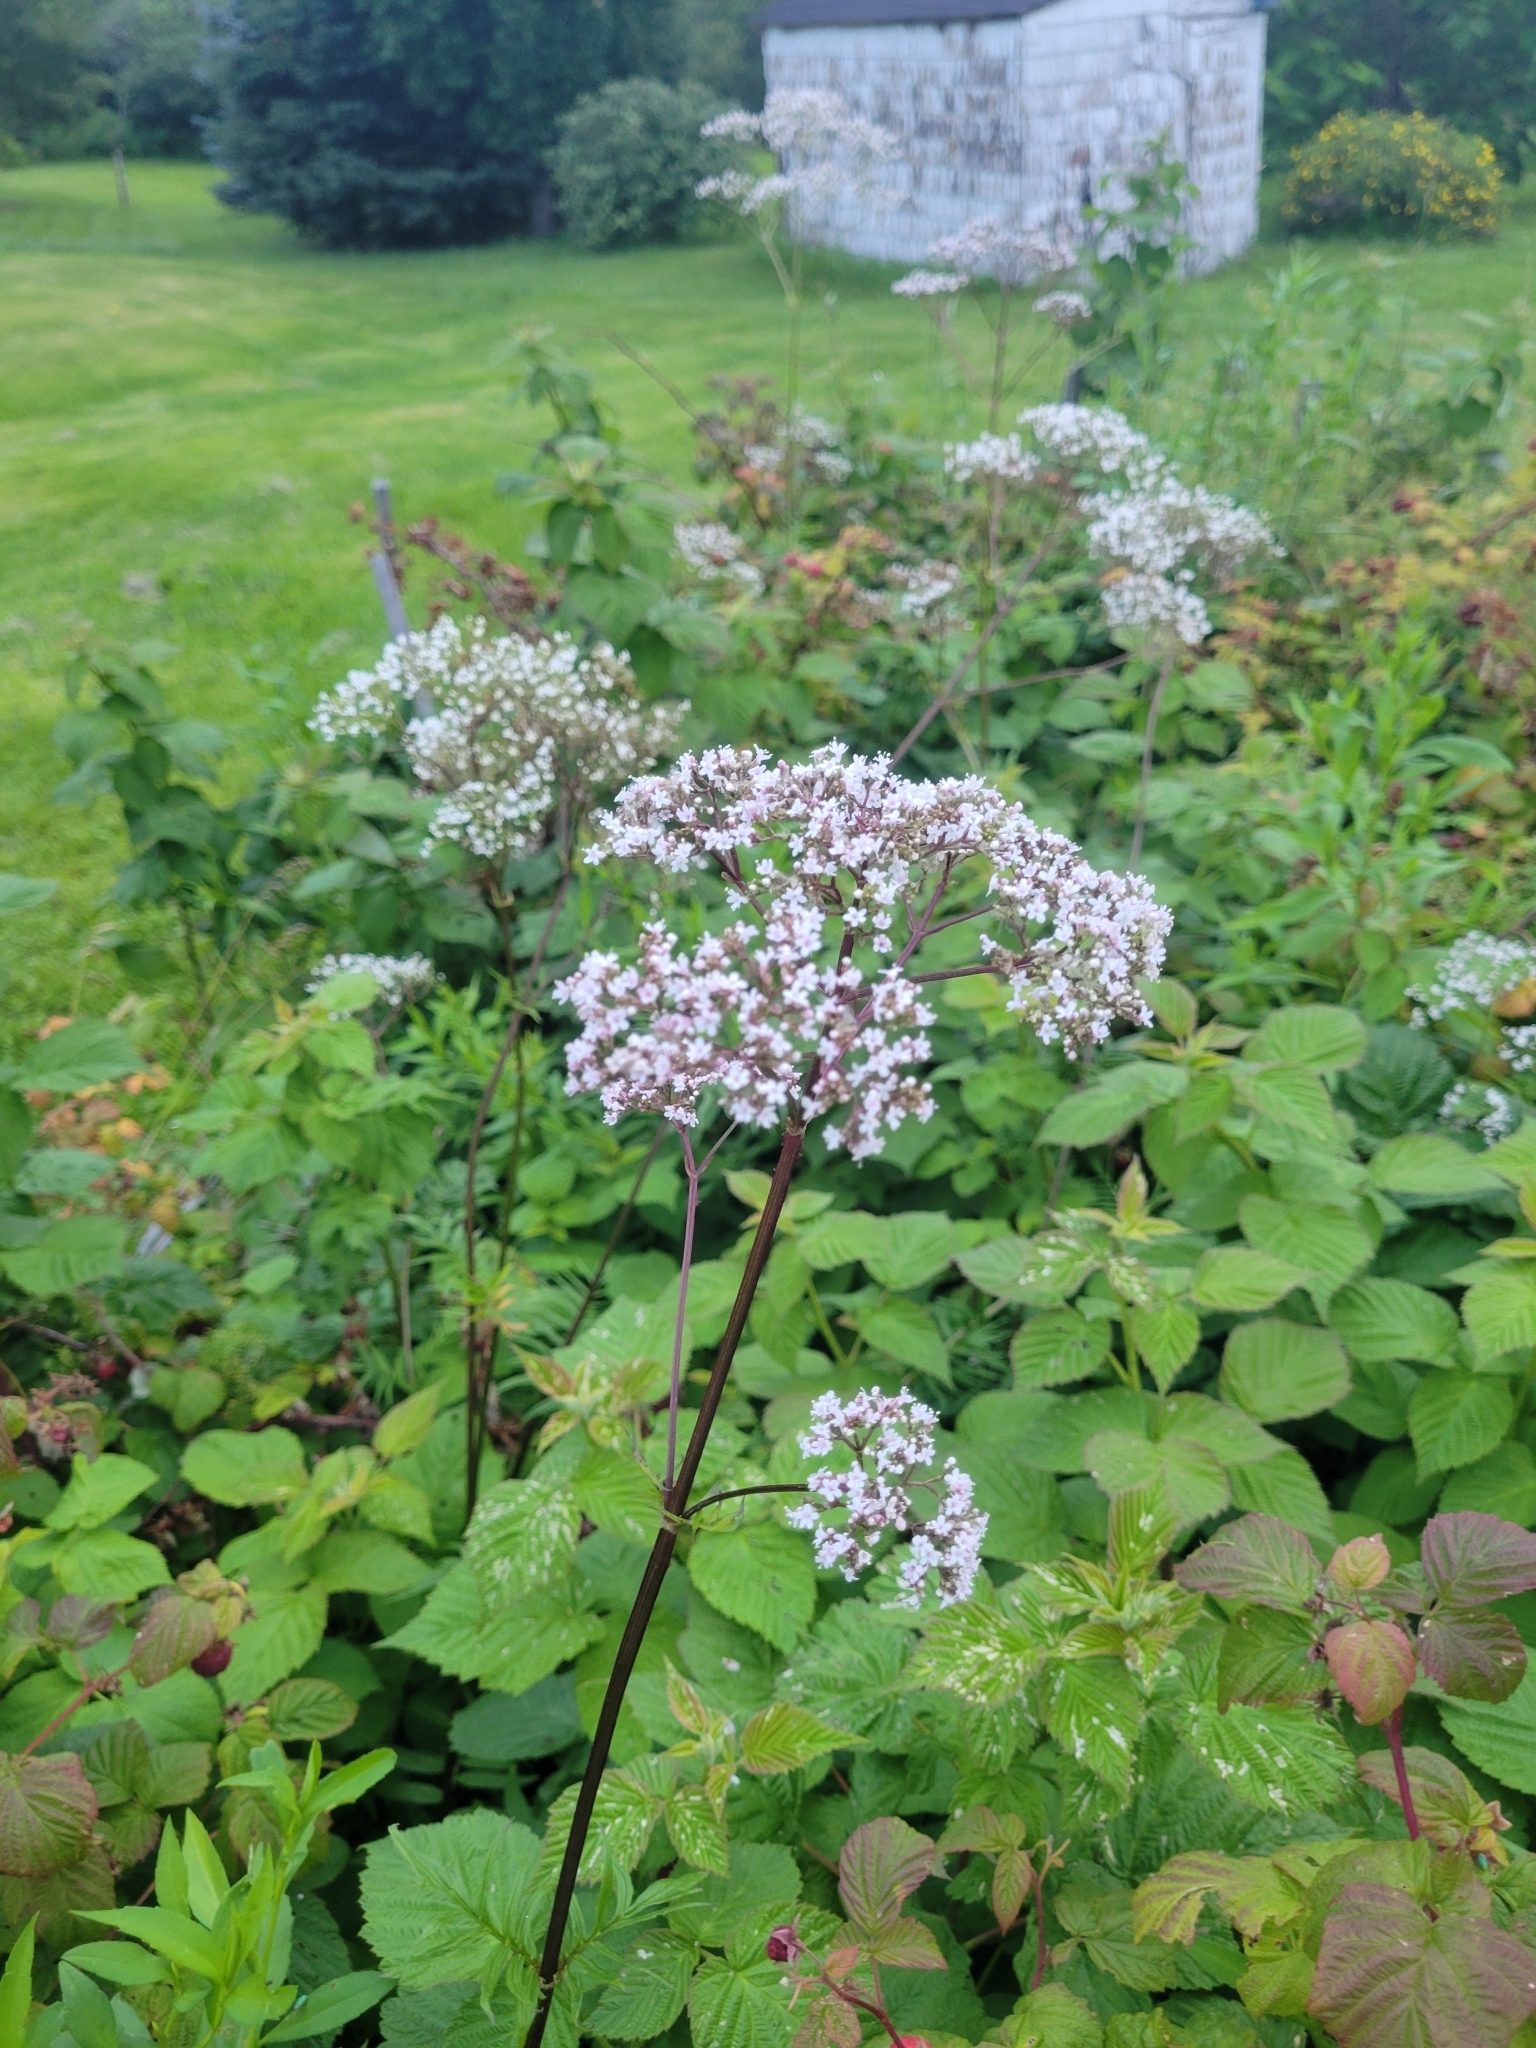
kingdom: Plantae
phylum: Tracheophyta
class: Magnoliopsida
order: Dipsacales
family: Caprifoliaceae
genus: Valeriana
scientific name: Valeriana officinalis
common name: Common valerian
